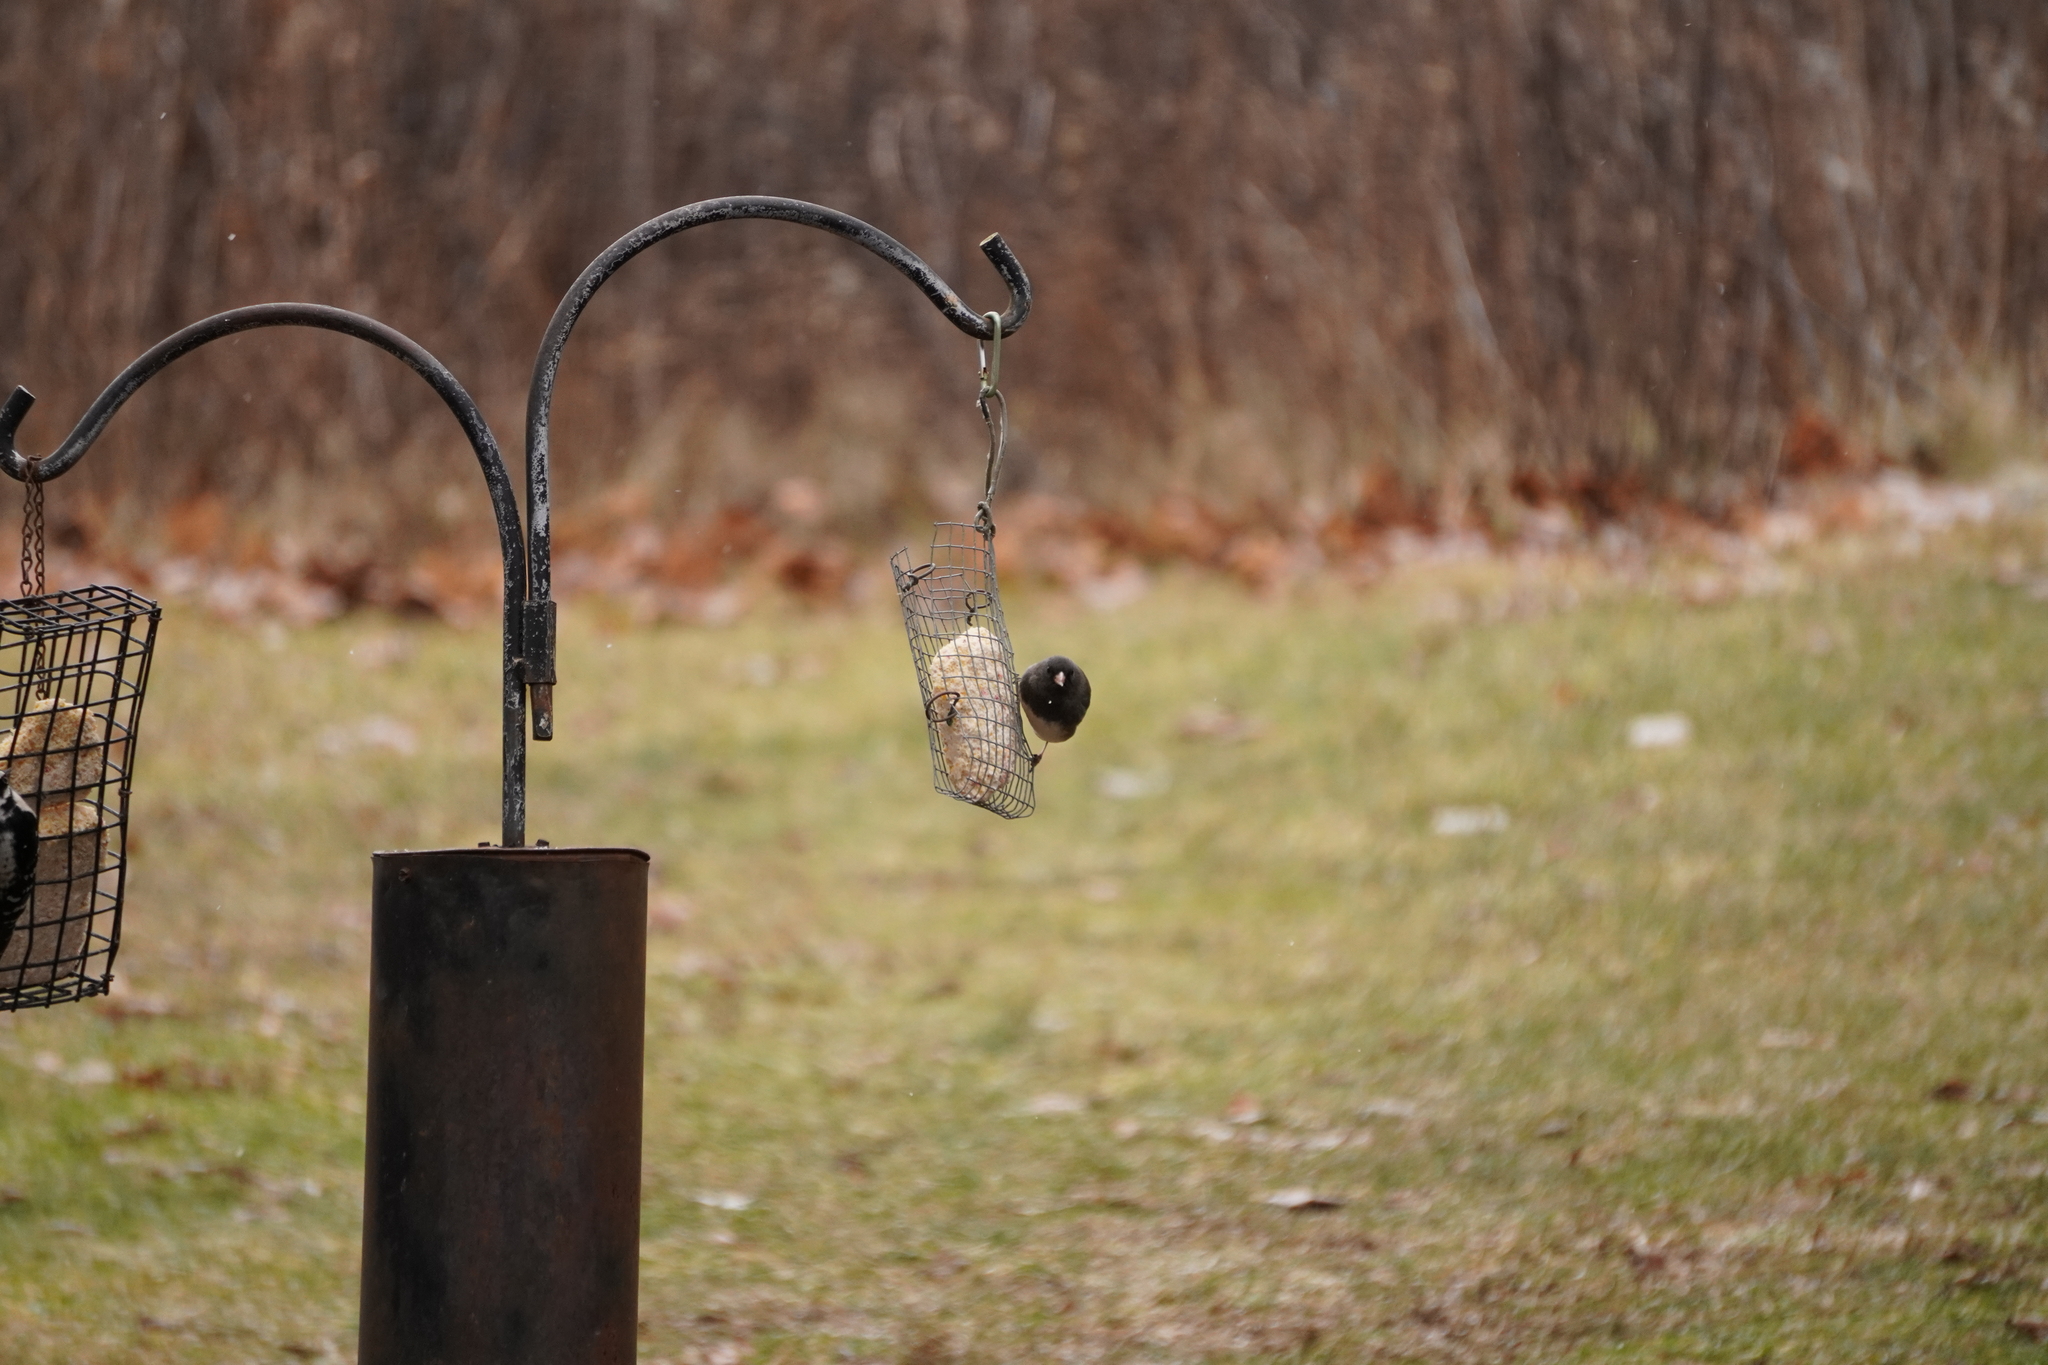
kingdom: Animalia
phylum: Chordata
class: Aves
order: Passeriformes
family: Passerellidae
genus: Junco
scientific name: Junco hyemalis
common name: Dark-eyed junco
